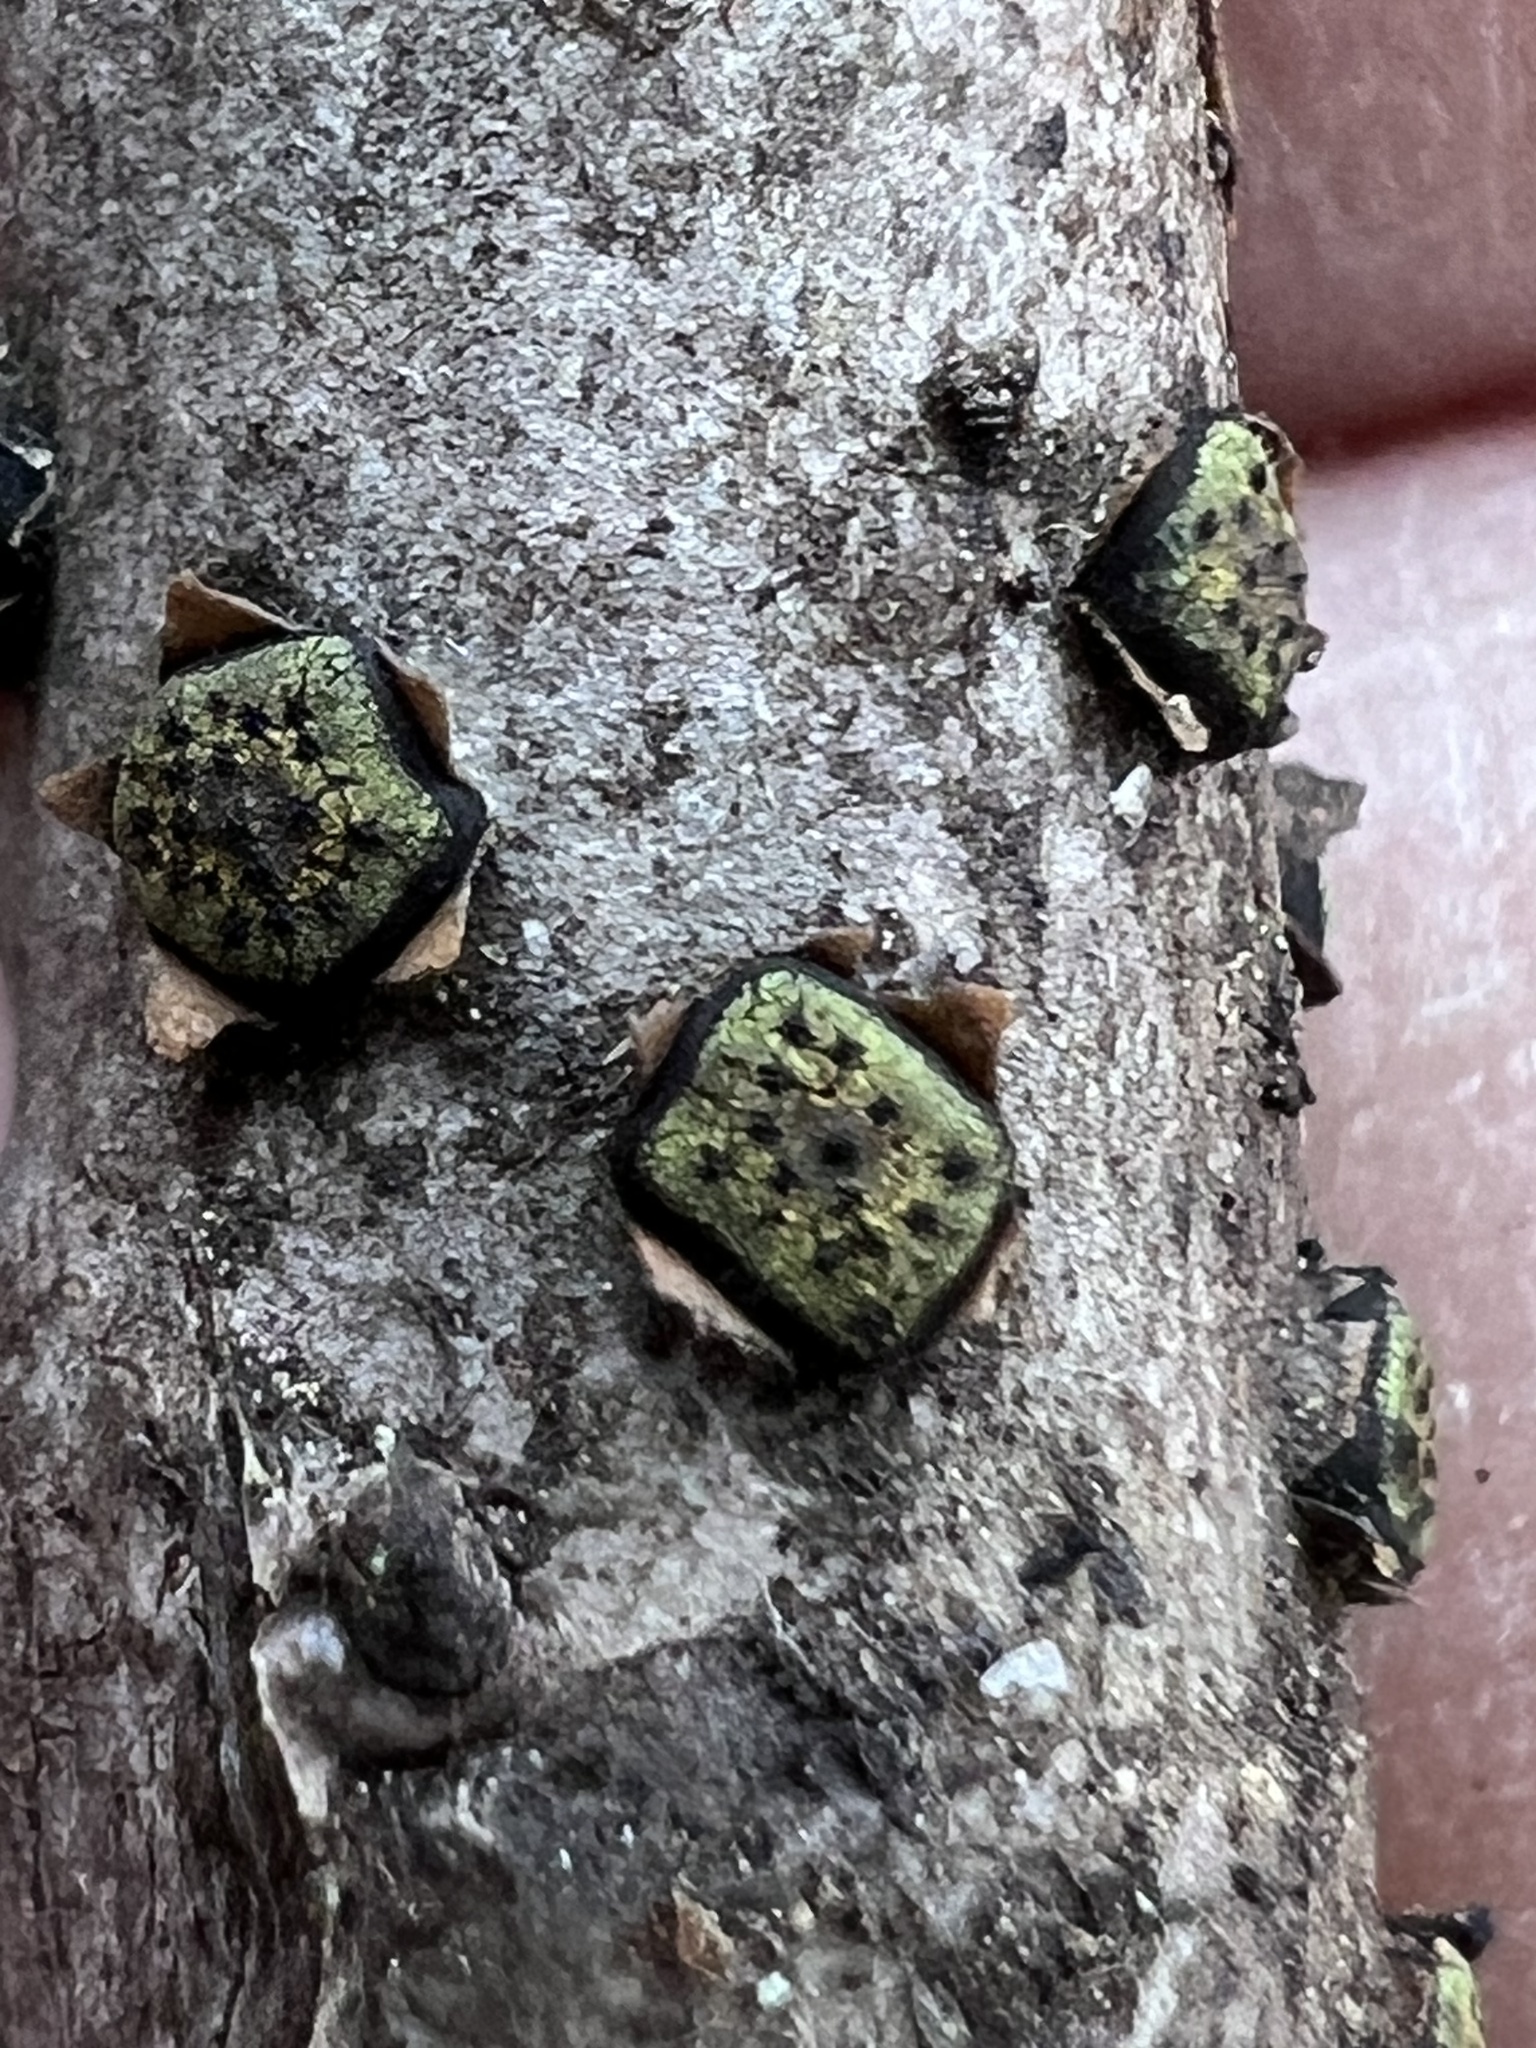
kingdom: Fungi
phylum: Ascomycota
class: Sordariomycetes
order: Xylariales
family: Diatrypaceae
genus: Diatrype
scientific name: Diatrype virescens
